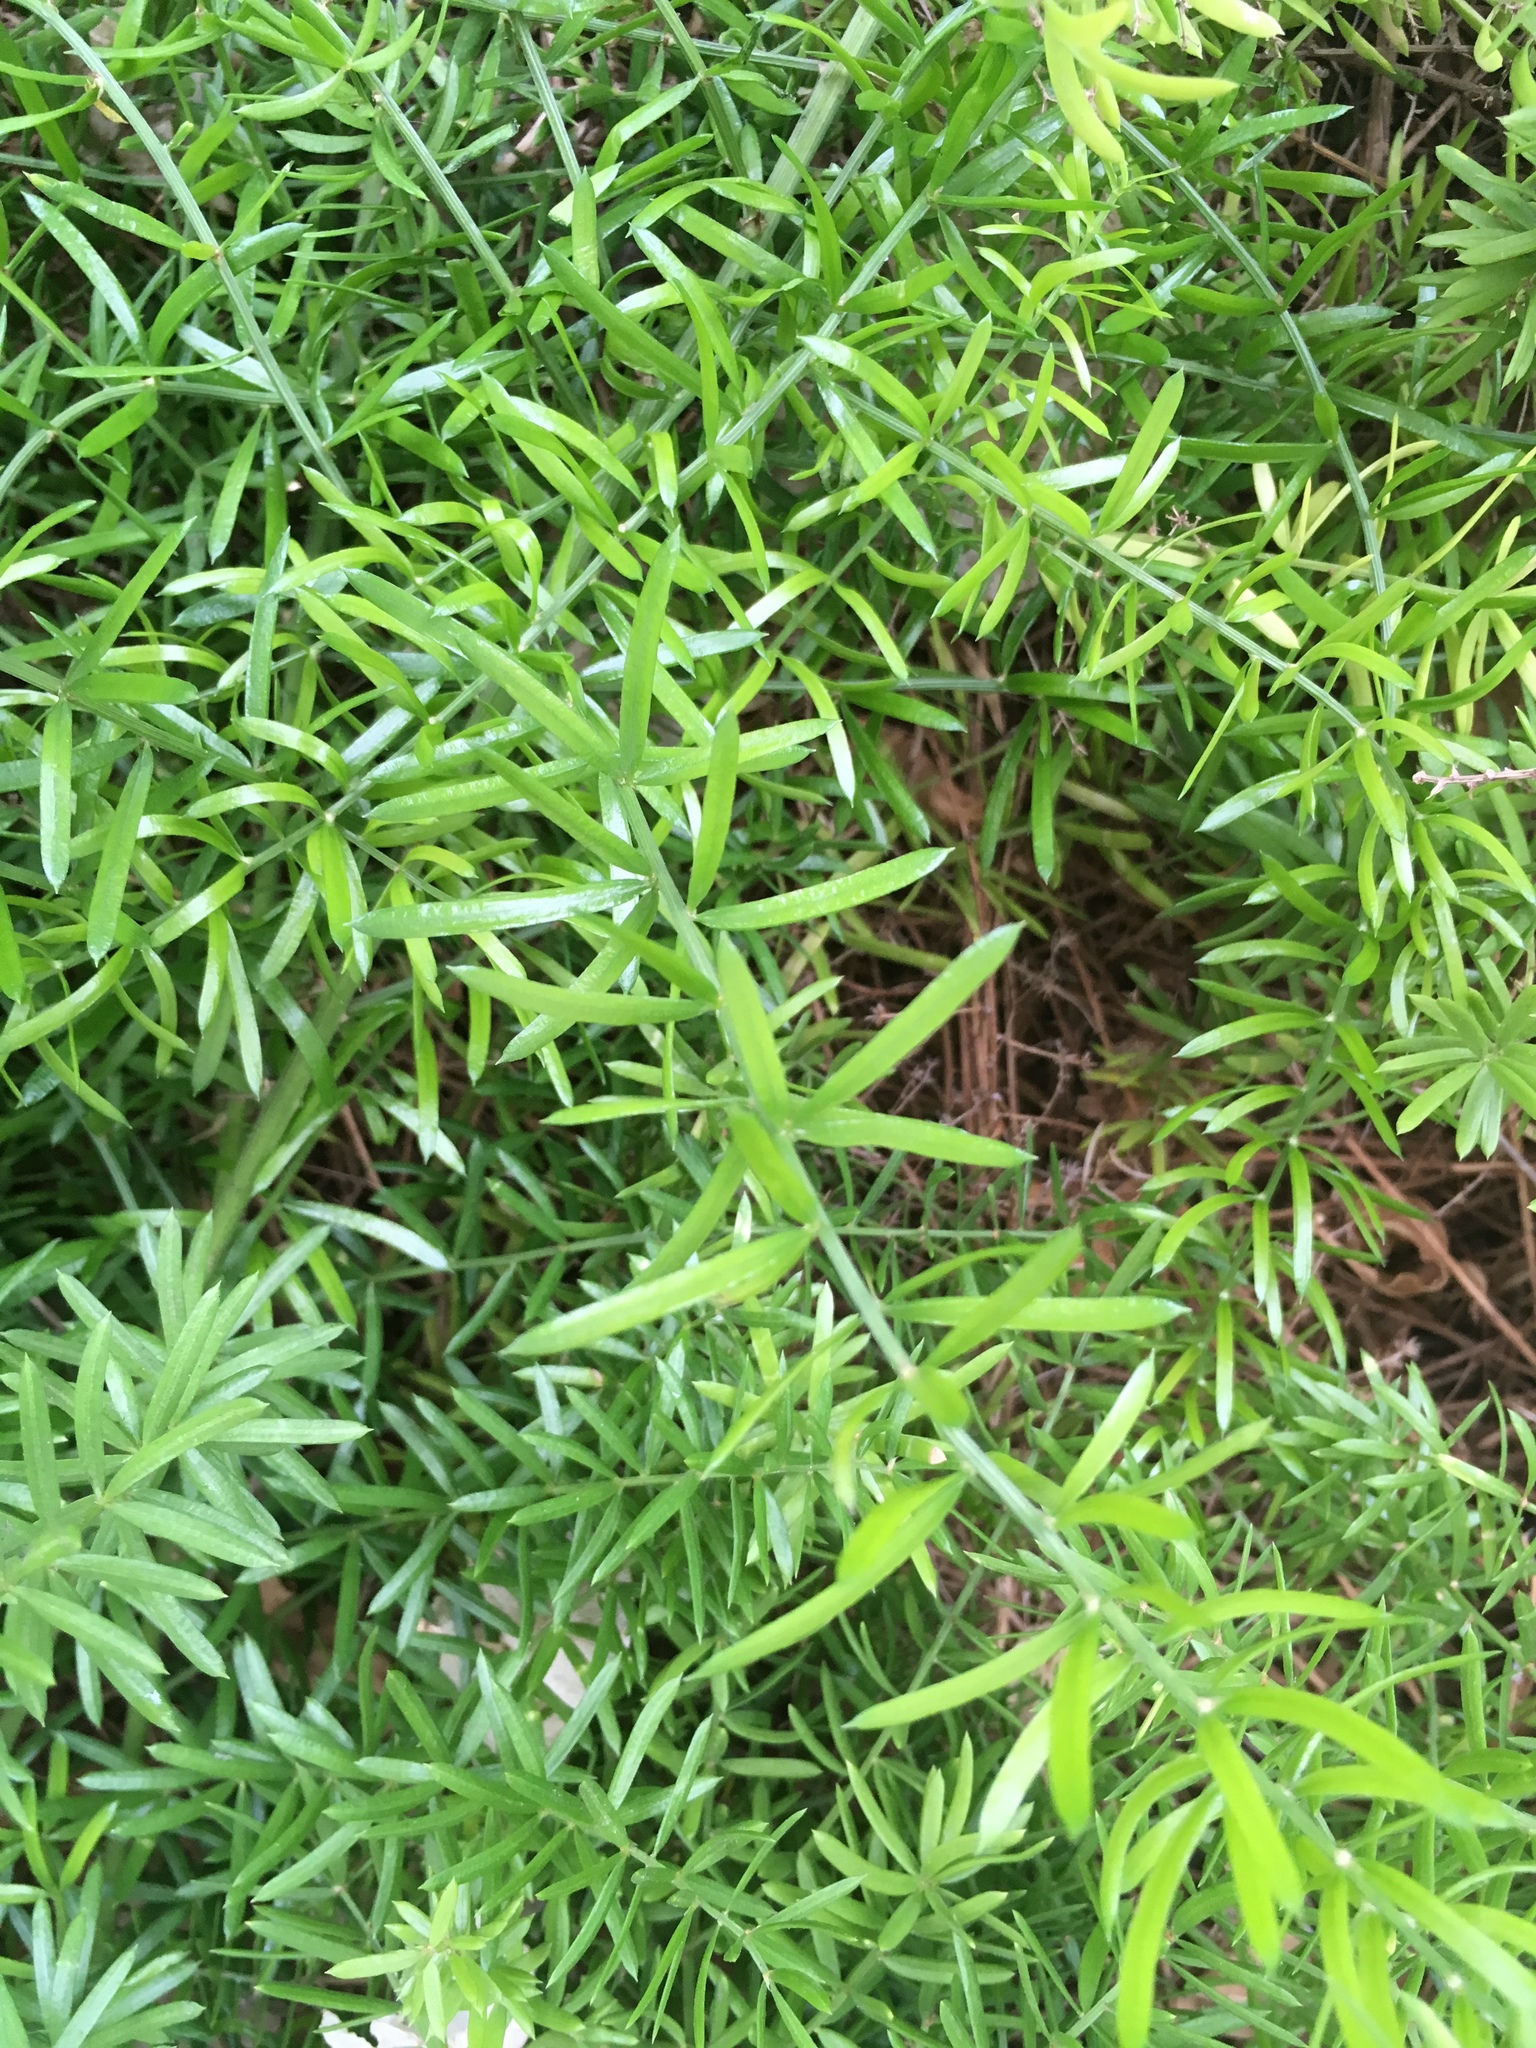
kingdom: Plantae
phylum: Tracheophyta
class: Liliopsida
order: Asparagales
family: Asparagaceae
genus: Asparagus
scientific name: Asparagus aethiopicus
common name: Sprenger's asparagus fern
